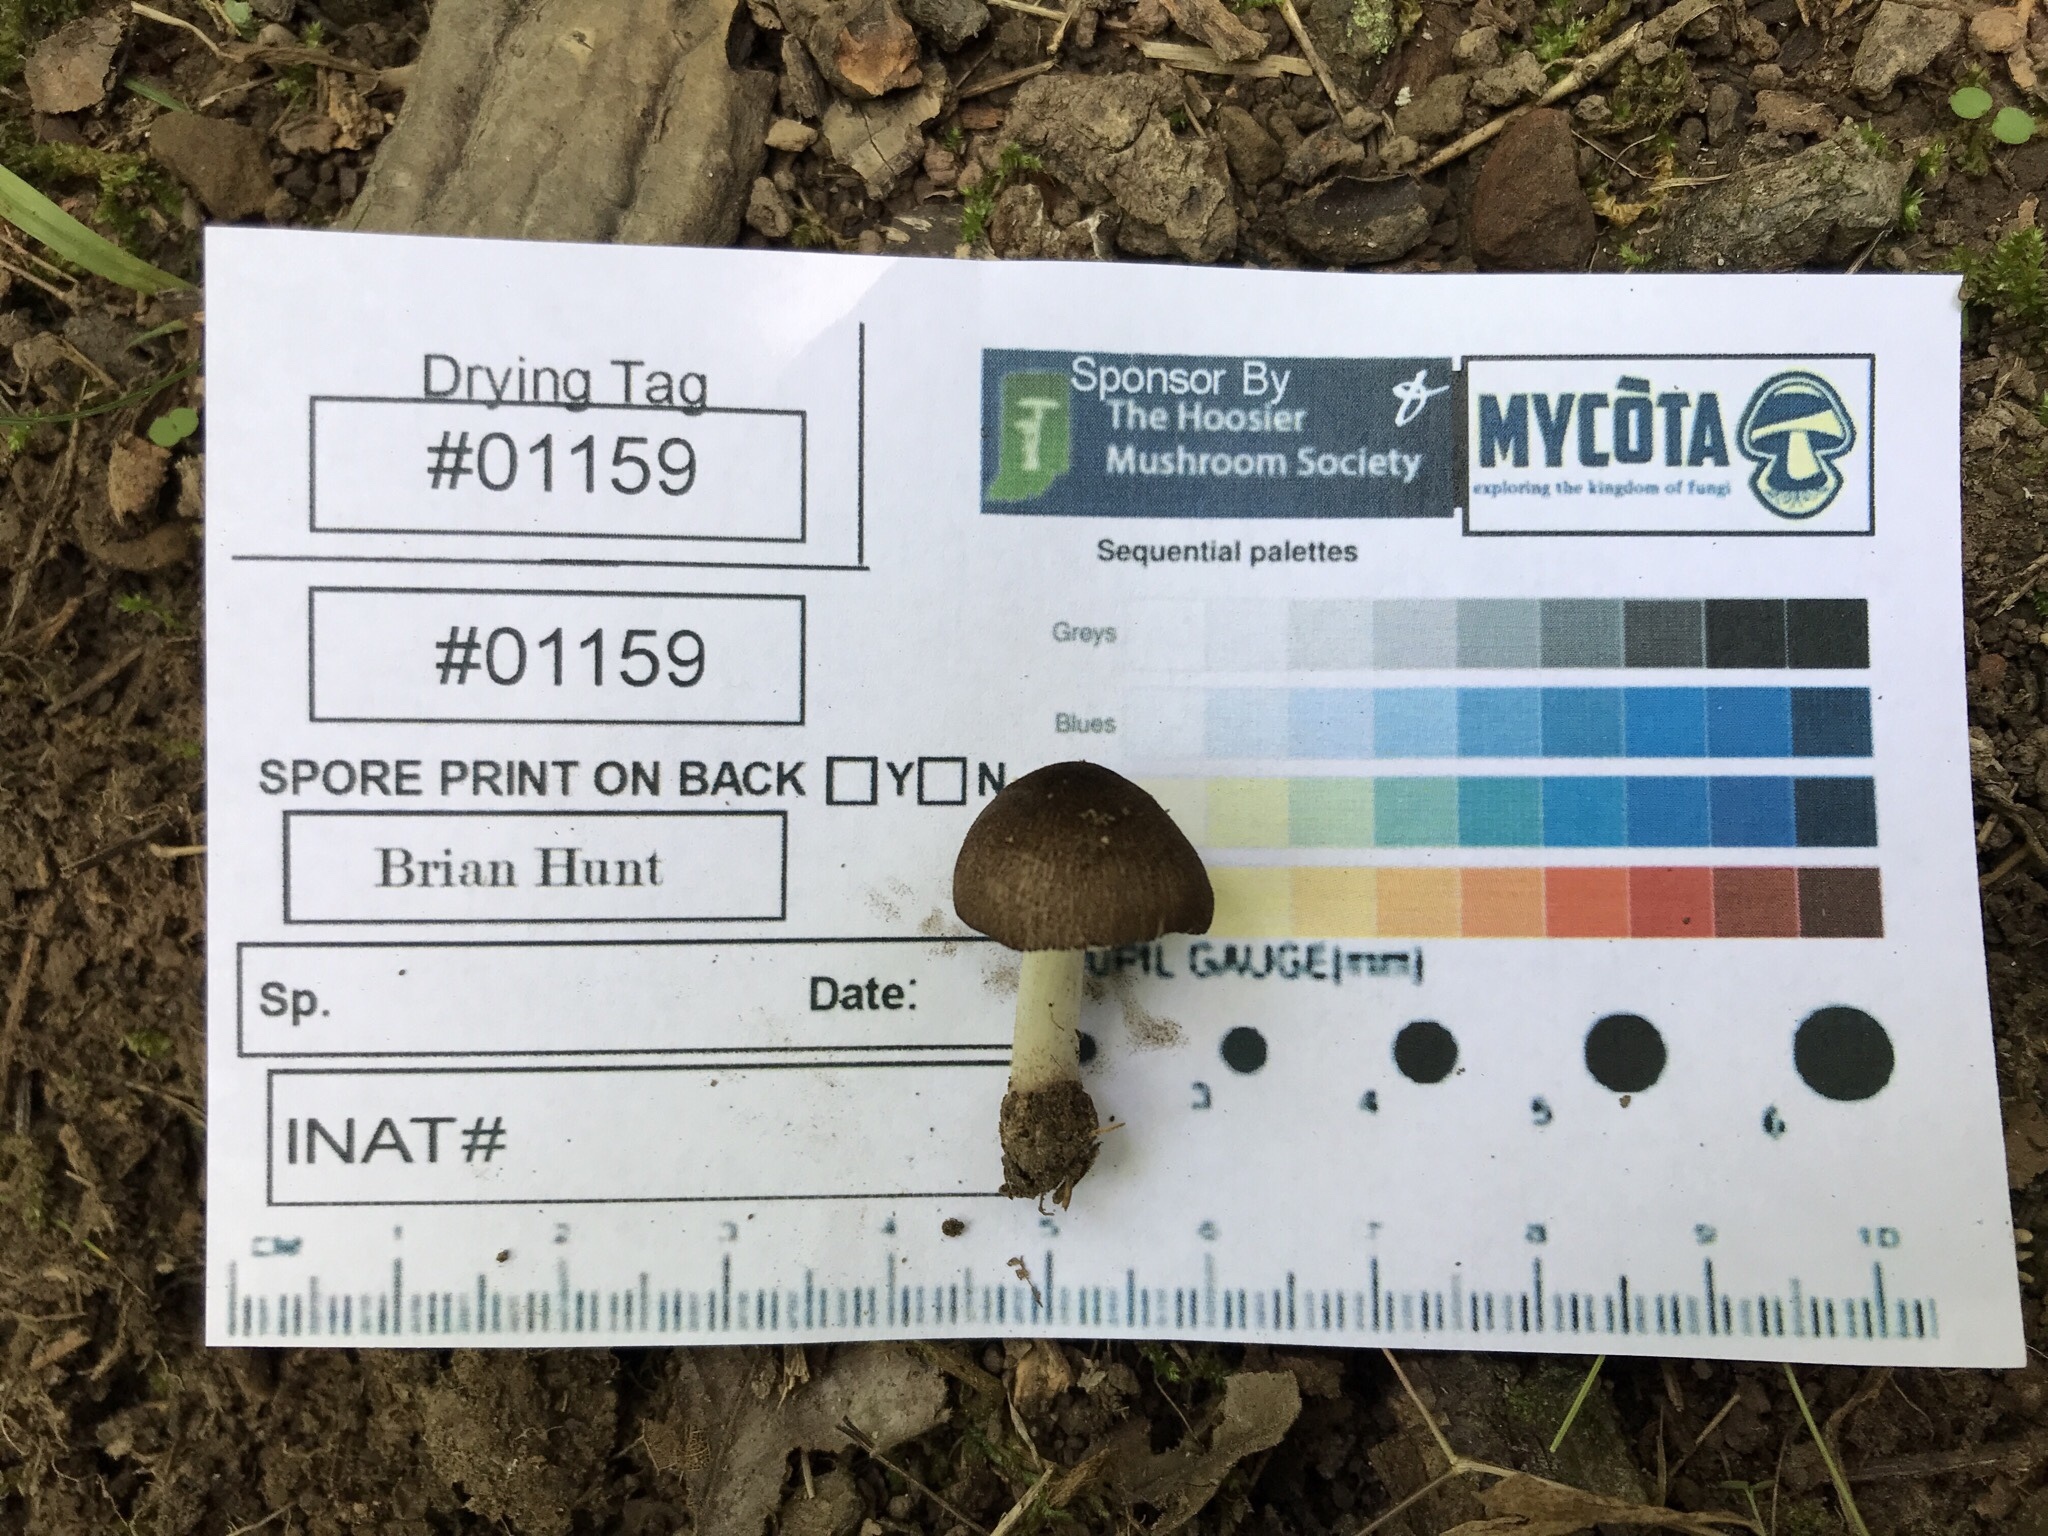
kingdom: Fungi
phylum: Basidiomycota
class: Agaricomycetes
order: Agaricales
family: Pluteaceae
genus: Pluteus
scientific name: Pluteus ephebeus
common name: Sooty shield
